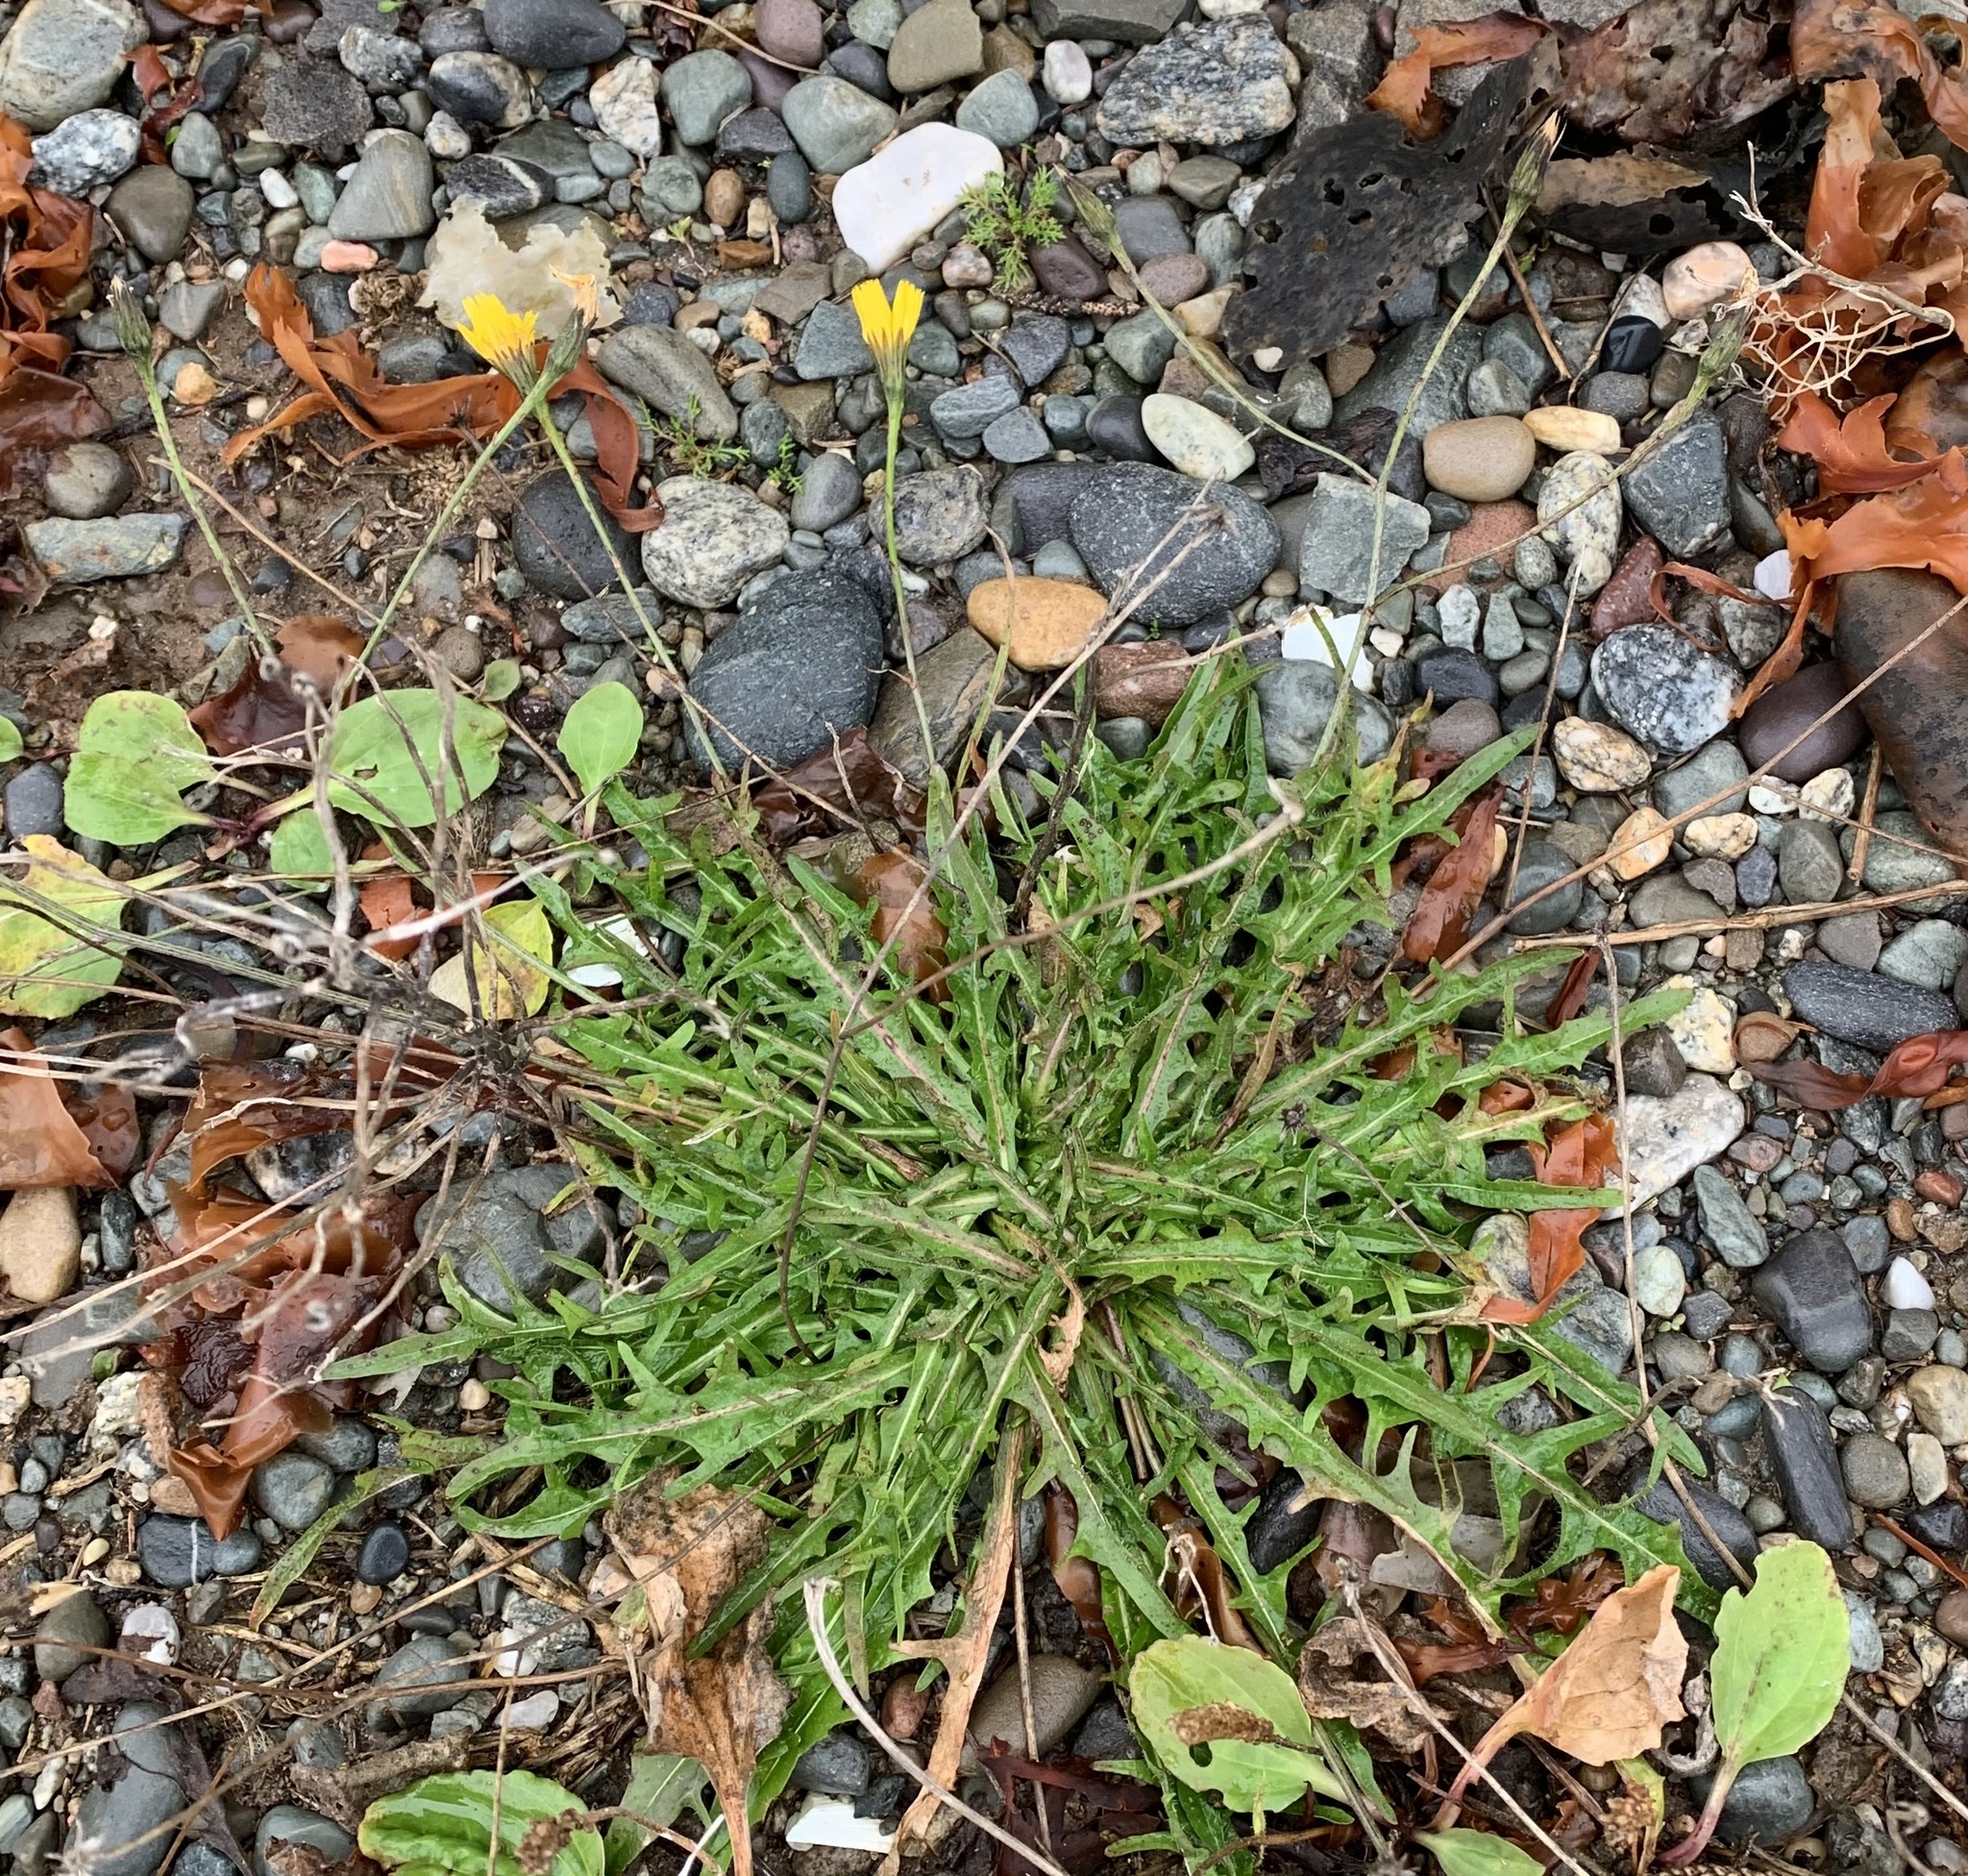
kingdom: Plantae
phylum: Tracheophyta
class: Magnoliopsida
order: Asterales
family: Asteraceae
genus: Scorzoneroides
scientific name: Scorzoneroides autumnalis
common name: Autumn hawkbit
